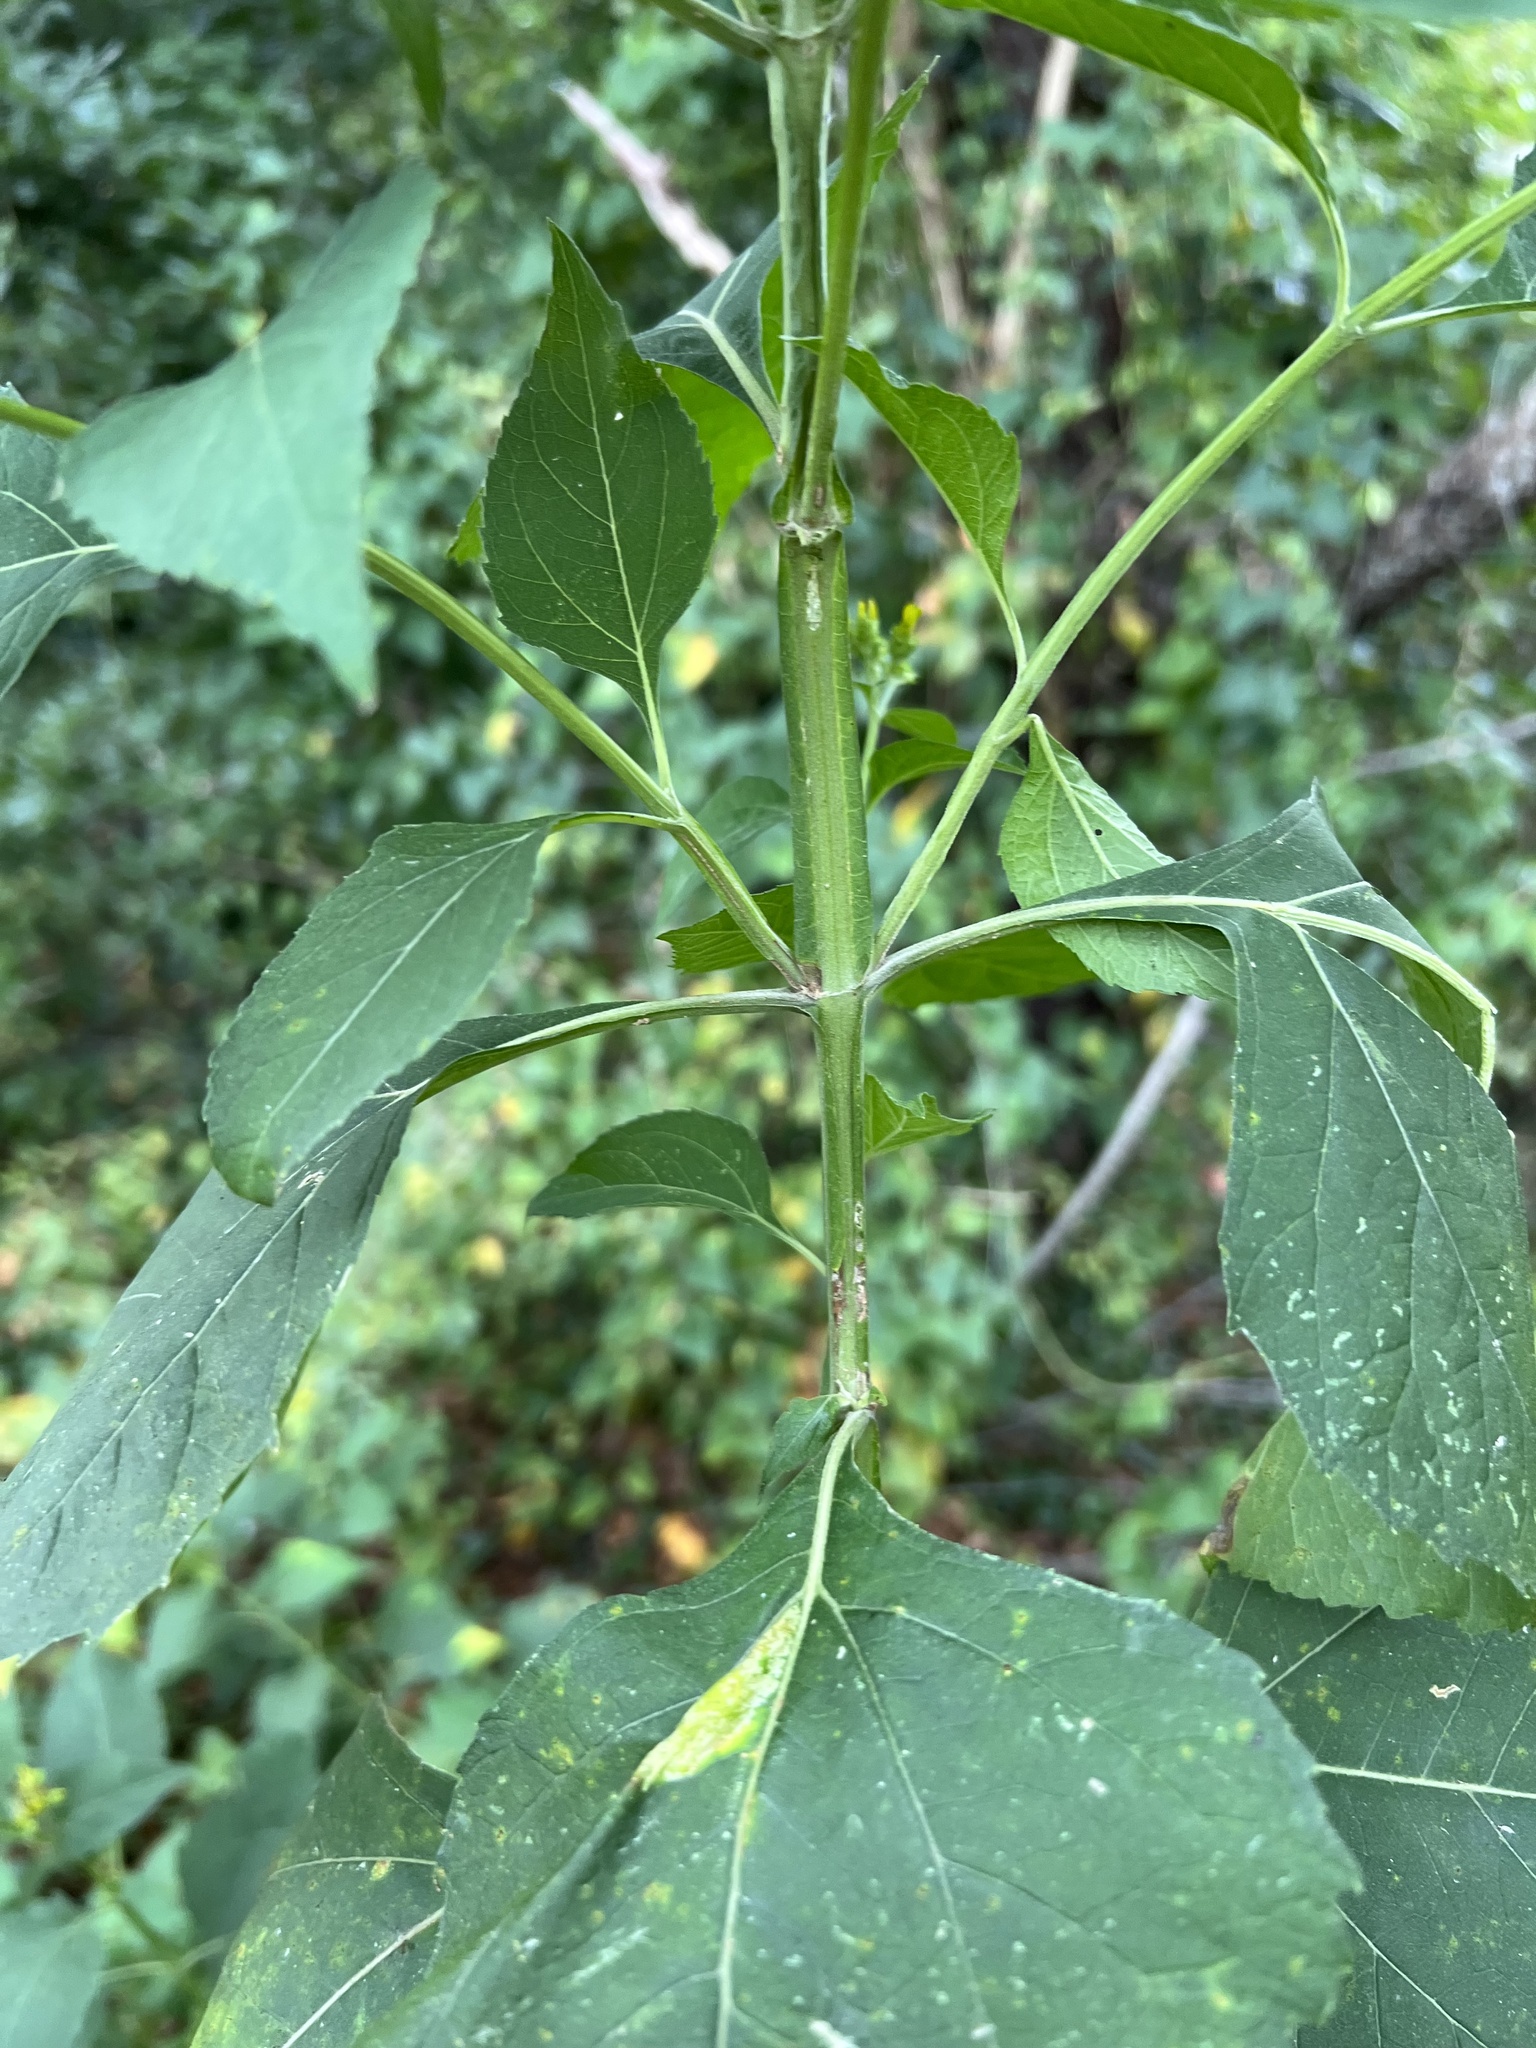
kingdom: Plantae
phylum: Tracheophyta
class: Magnoliopsida
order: Asterales
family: Asteraceae
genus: Verbesina
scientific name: Verbesina occidentalis
